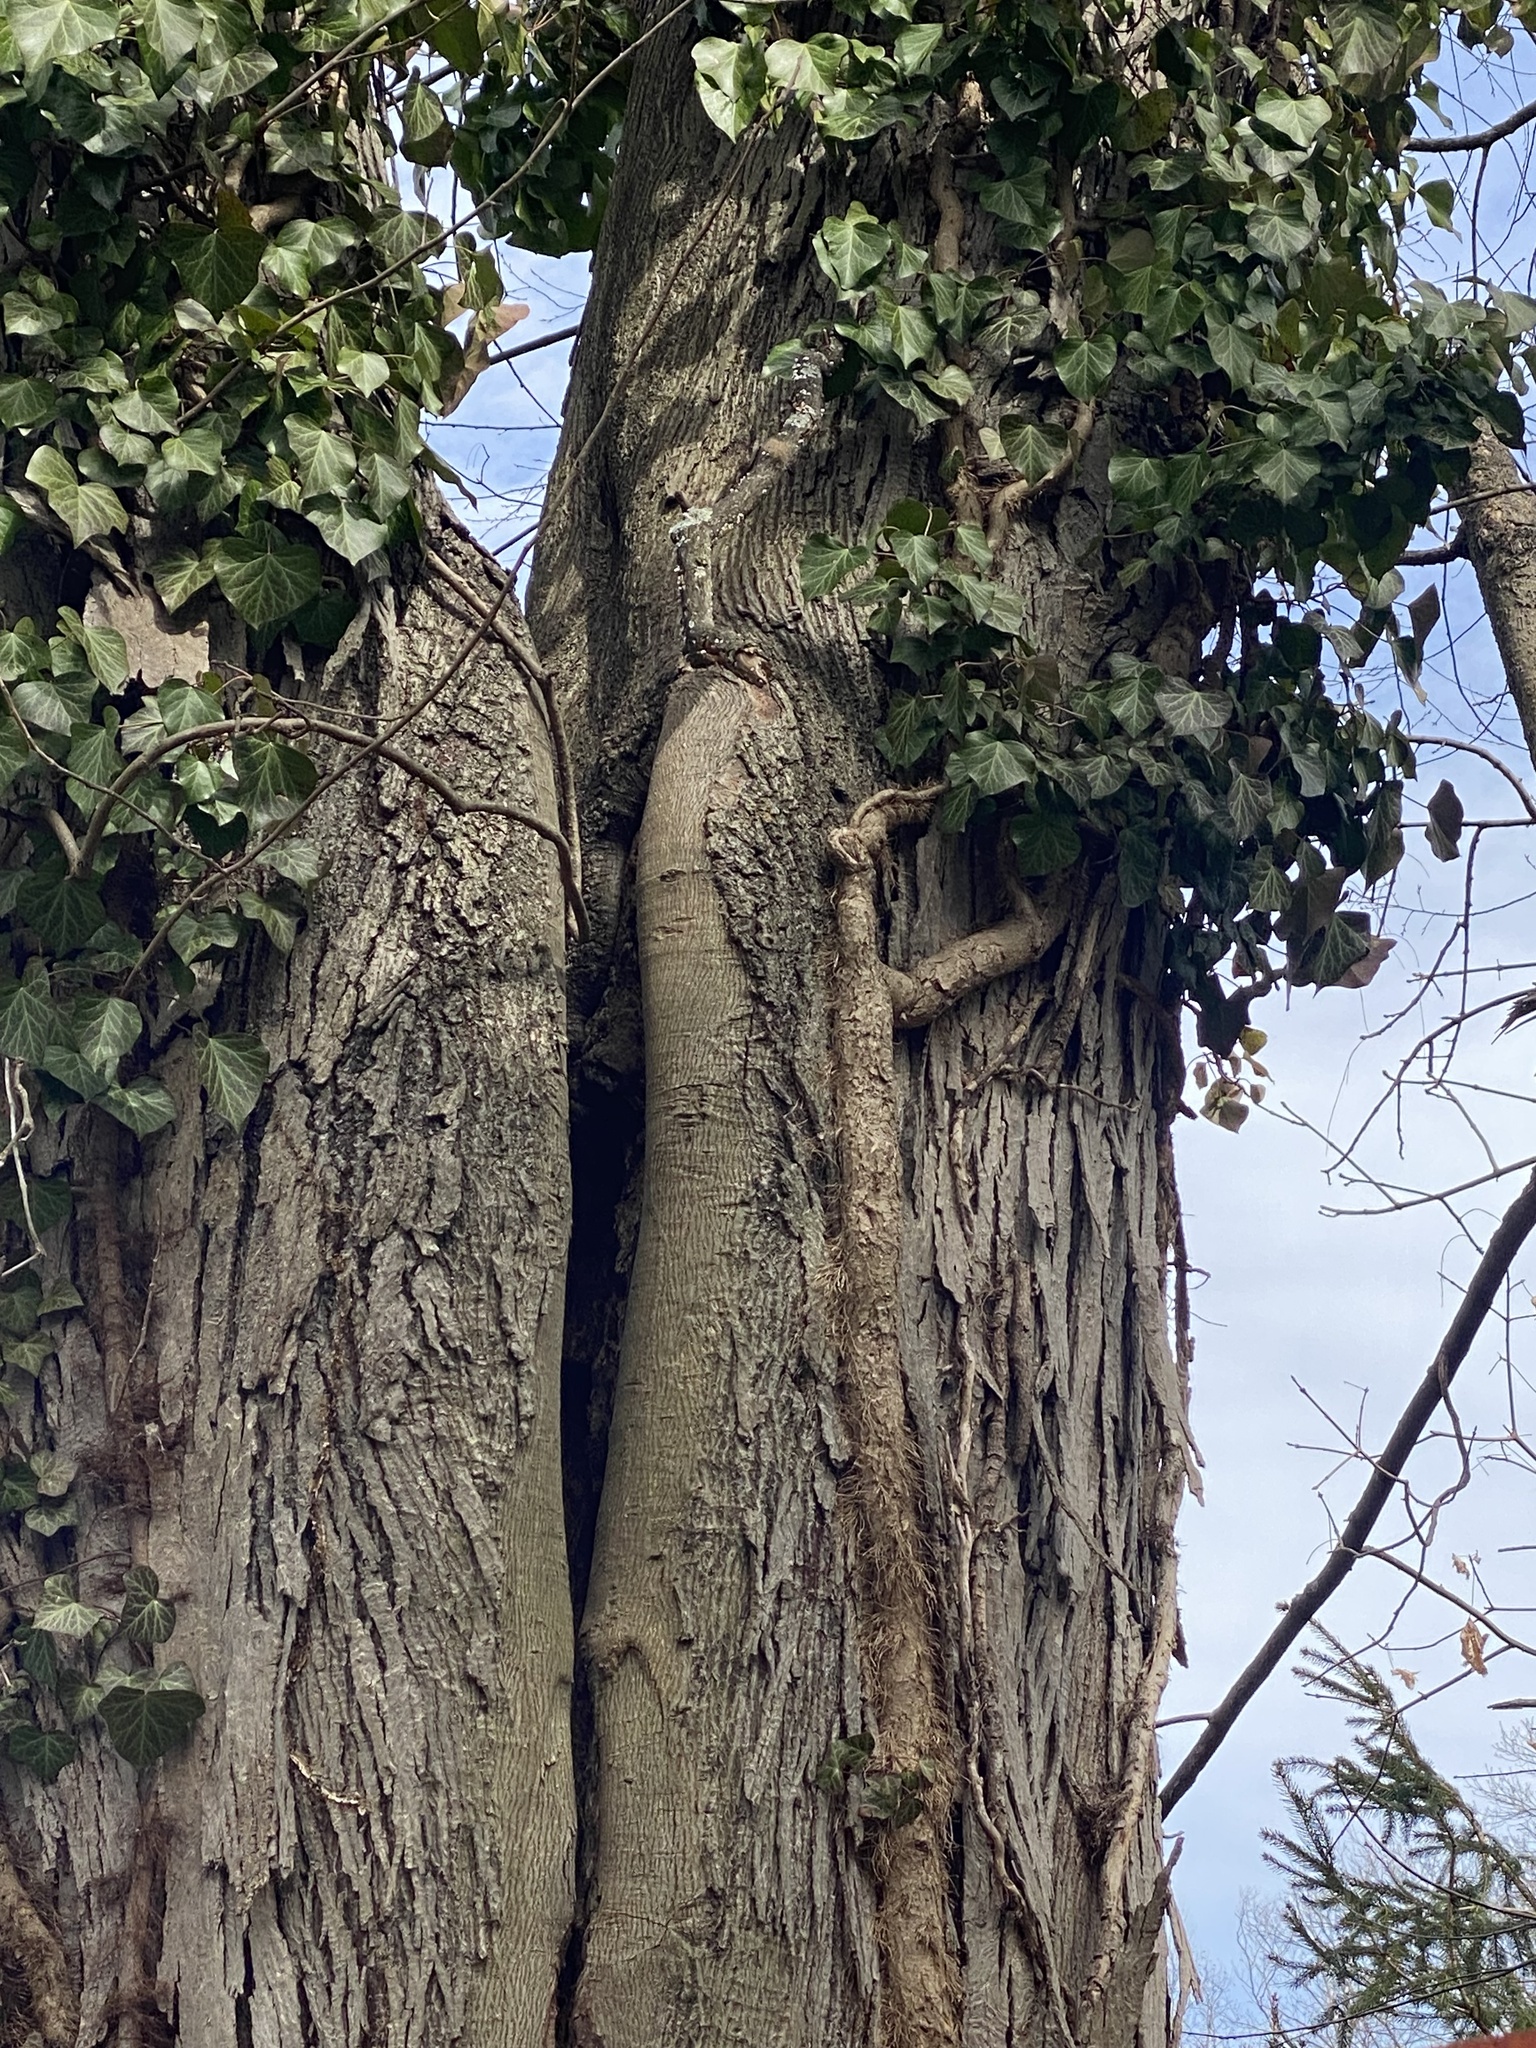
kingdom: Plantae
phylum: Tracheophyta
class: Magnoliopsida
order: Fagales
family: Juglandaceae
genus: Carya
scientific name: Carya ovata
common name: Shagbark hickory
